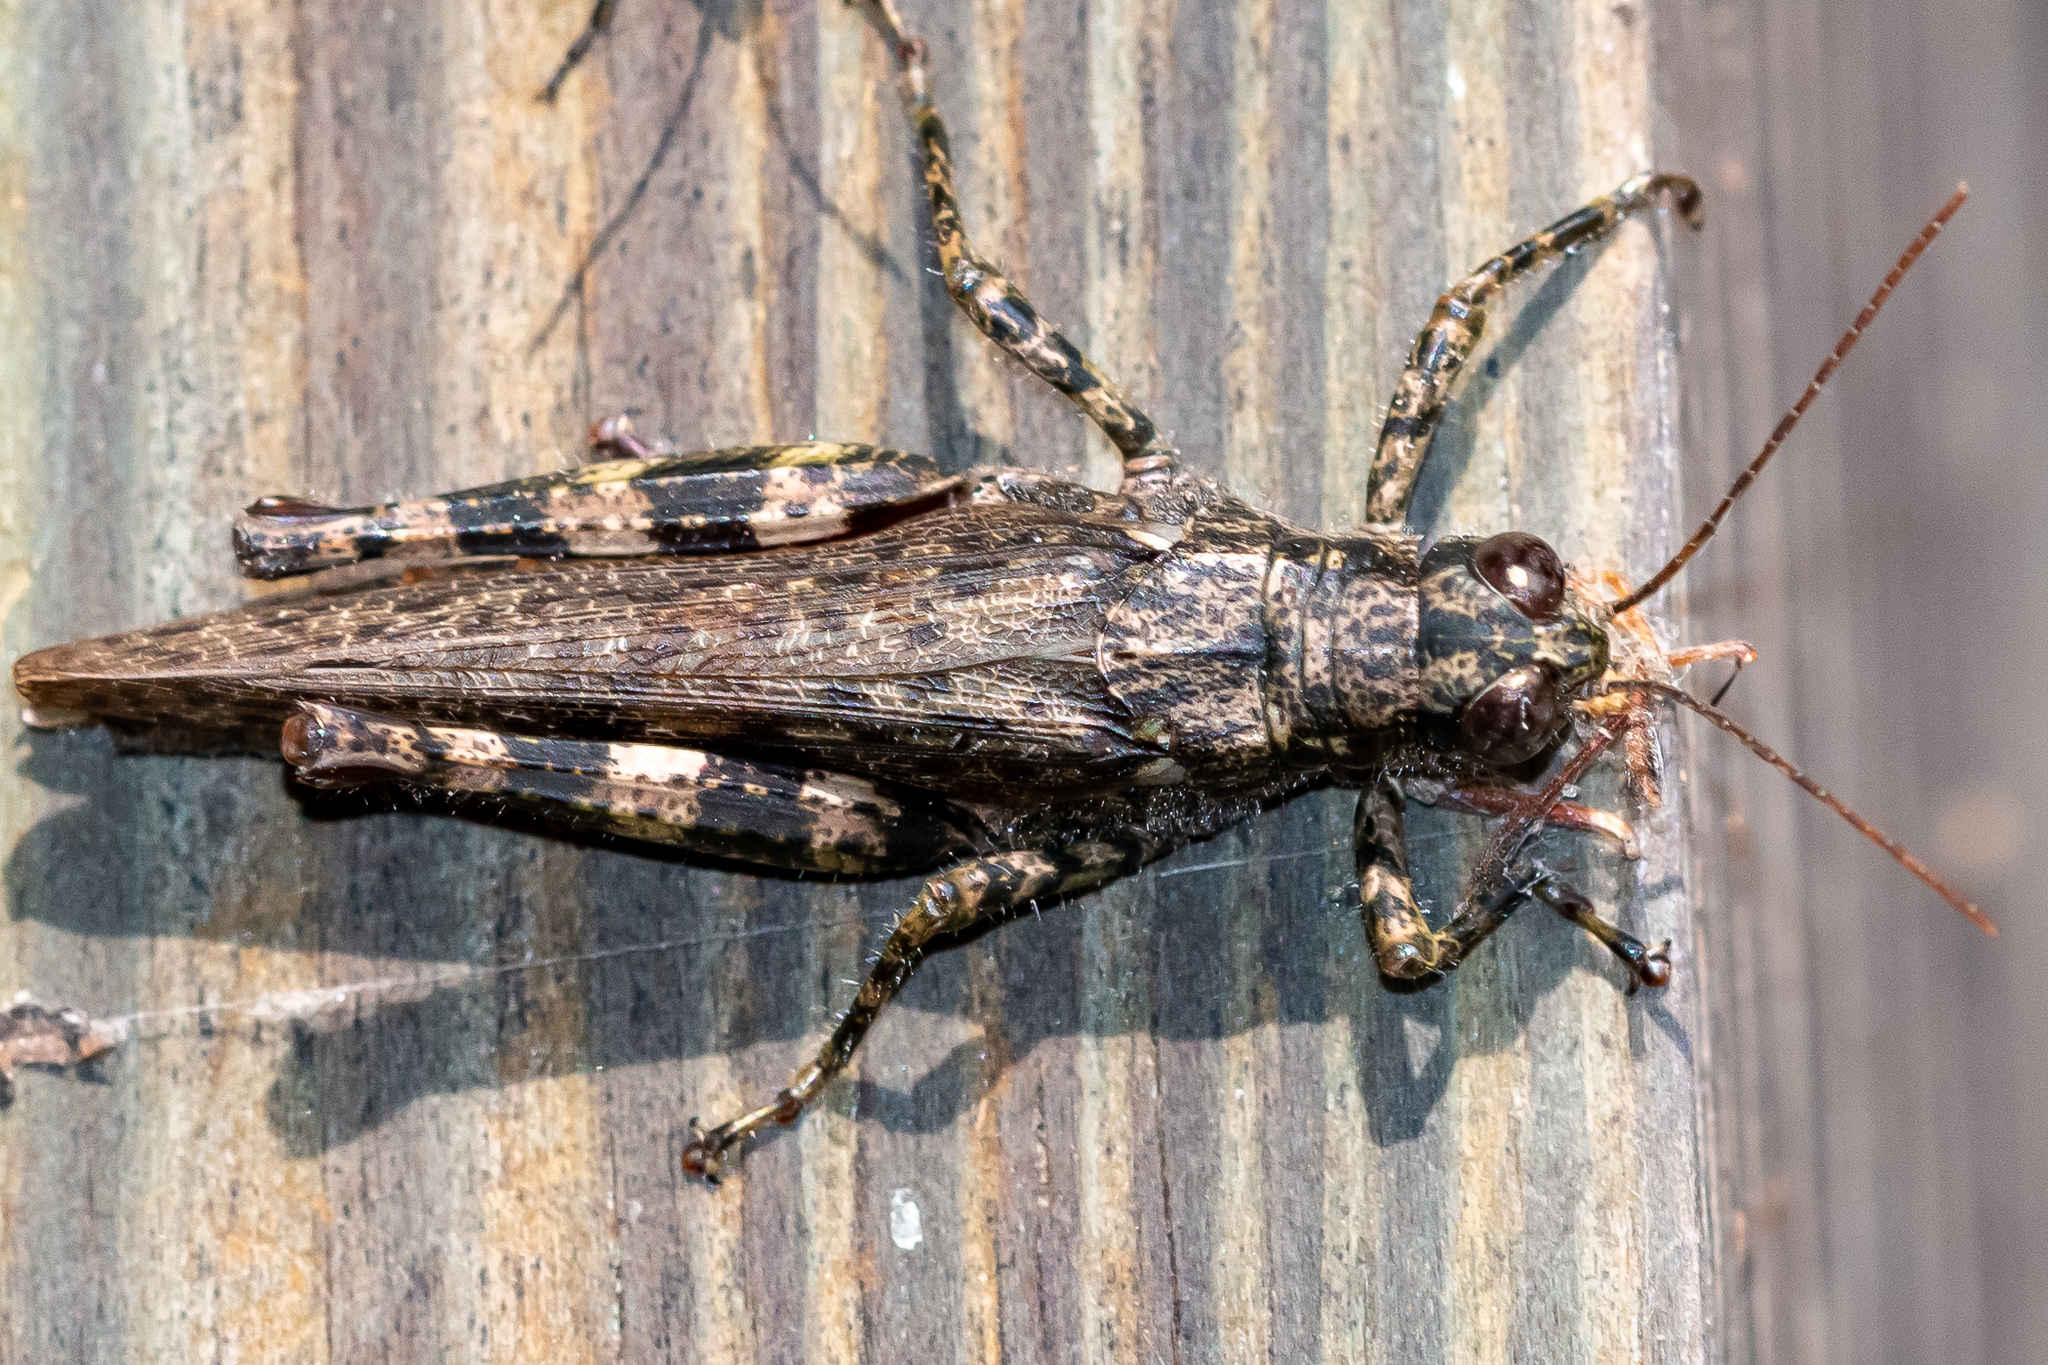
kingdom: Animalia
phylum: Arthropoda
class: Insecta
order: Orthoptera
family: Acrididae
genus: Melanoplus
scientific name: Melanoplus punctulatus
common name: Pine-tree spur-throat grasshopper
